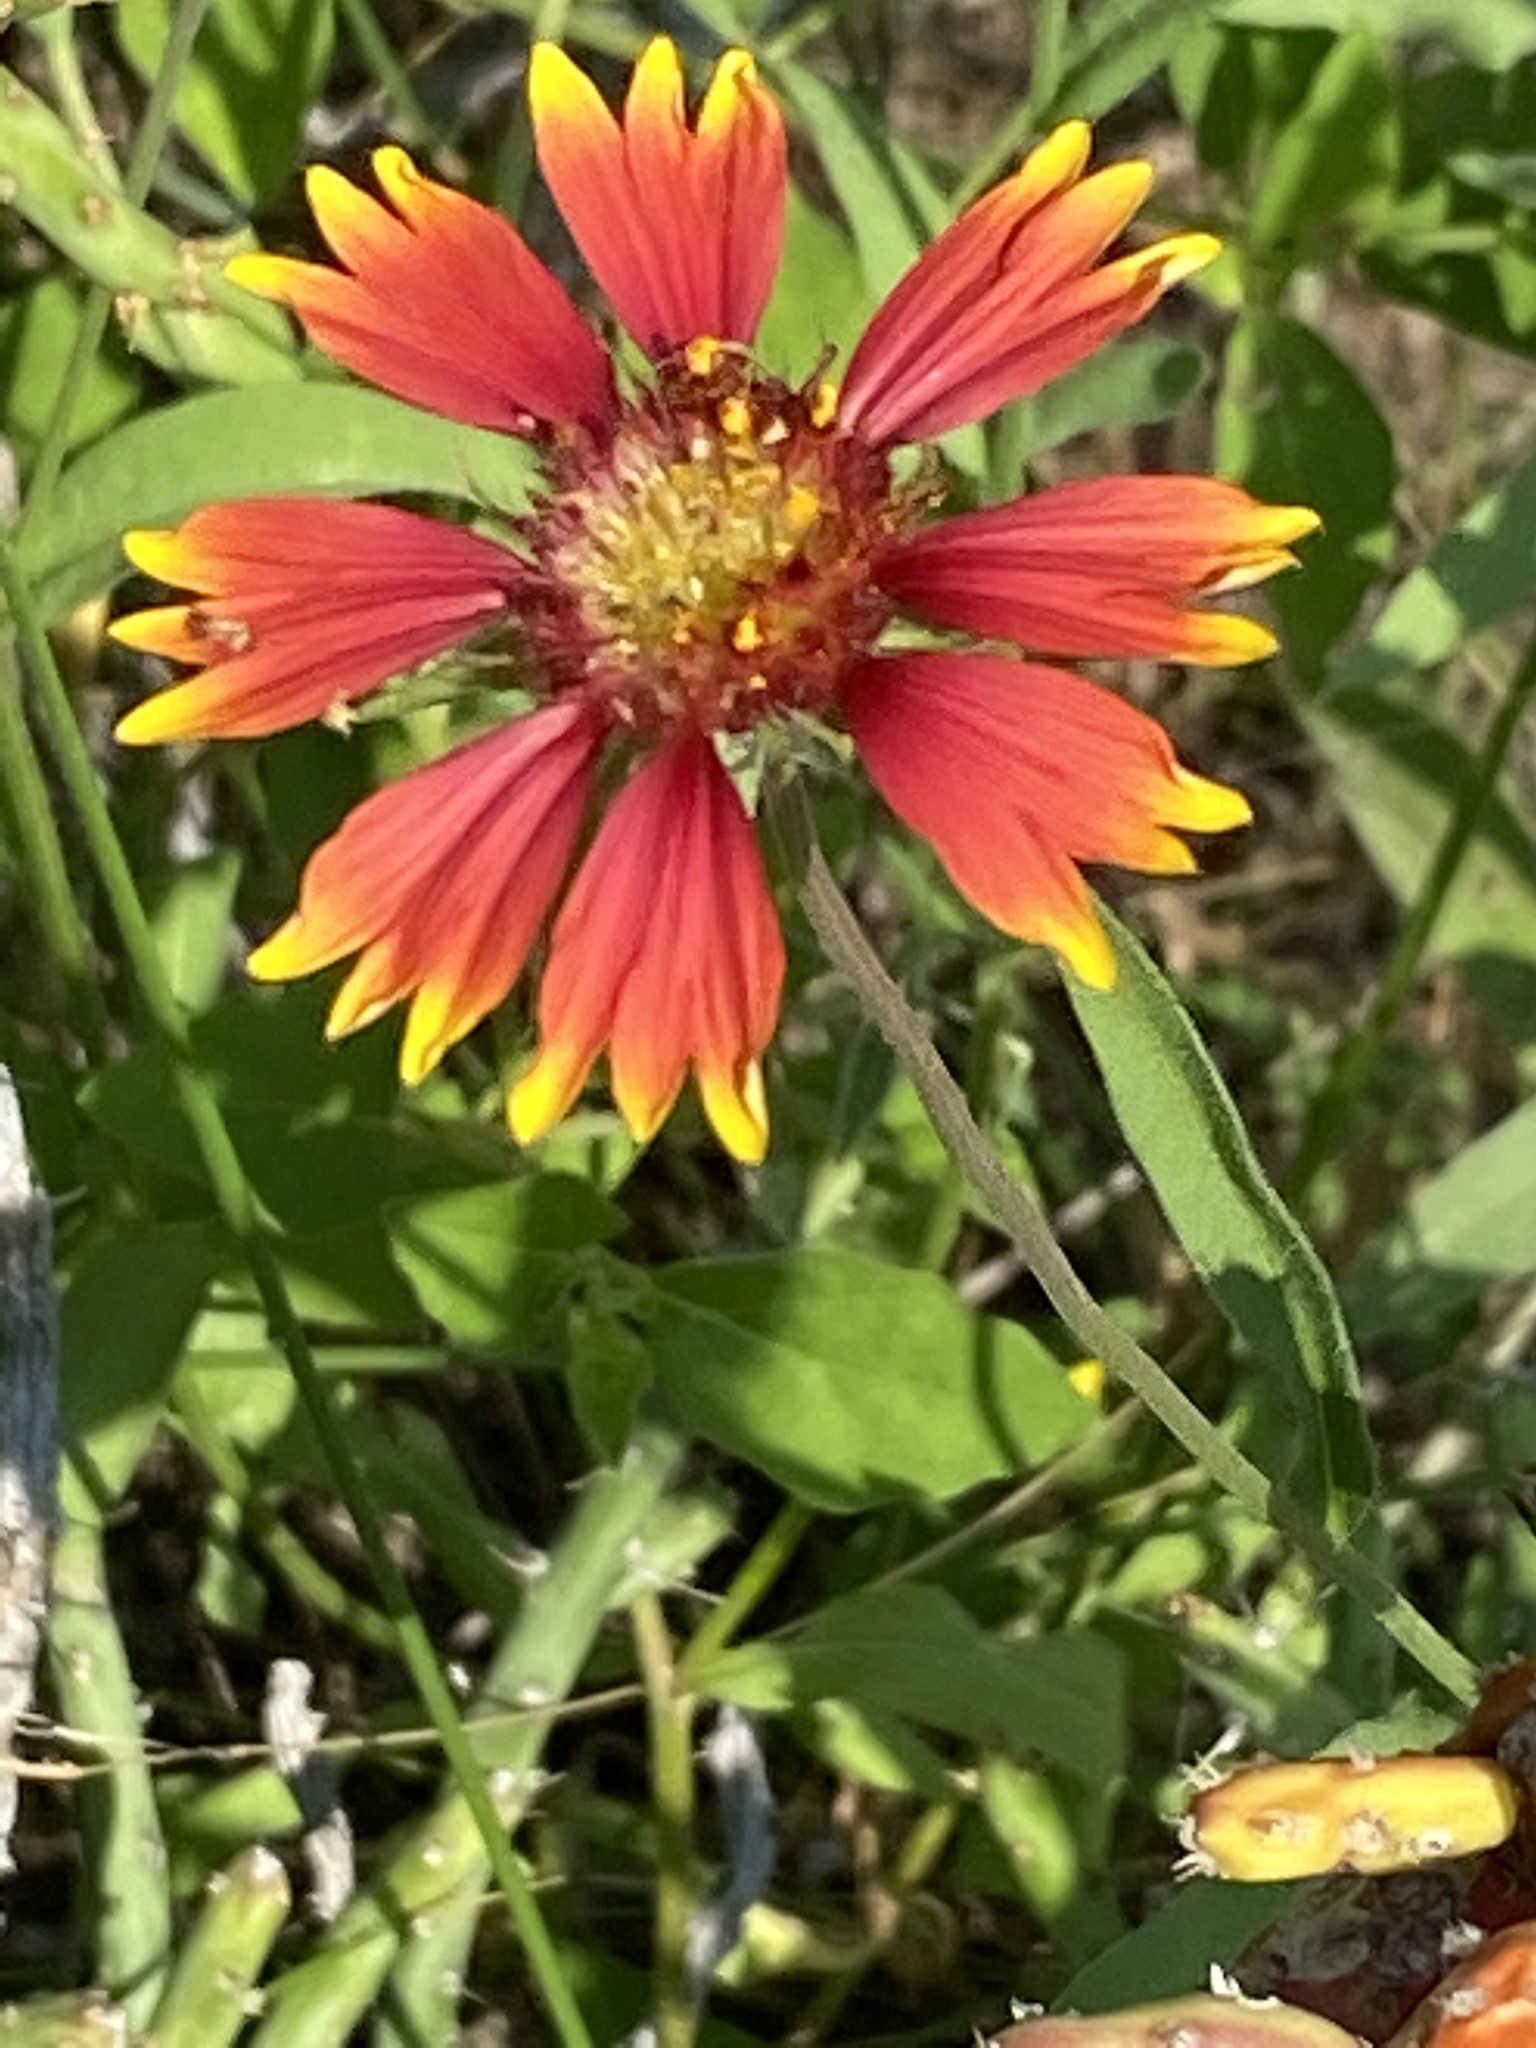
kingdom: Plantae
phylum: Tracheophyta
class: Magnoliopsida
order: Asterales
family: Asteraceae
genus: Gaillardia
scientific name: Gaillardia pulchella
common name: Firewheel
